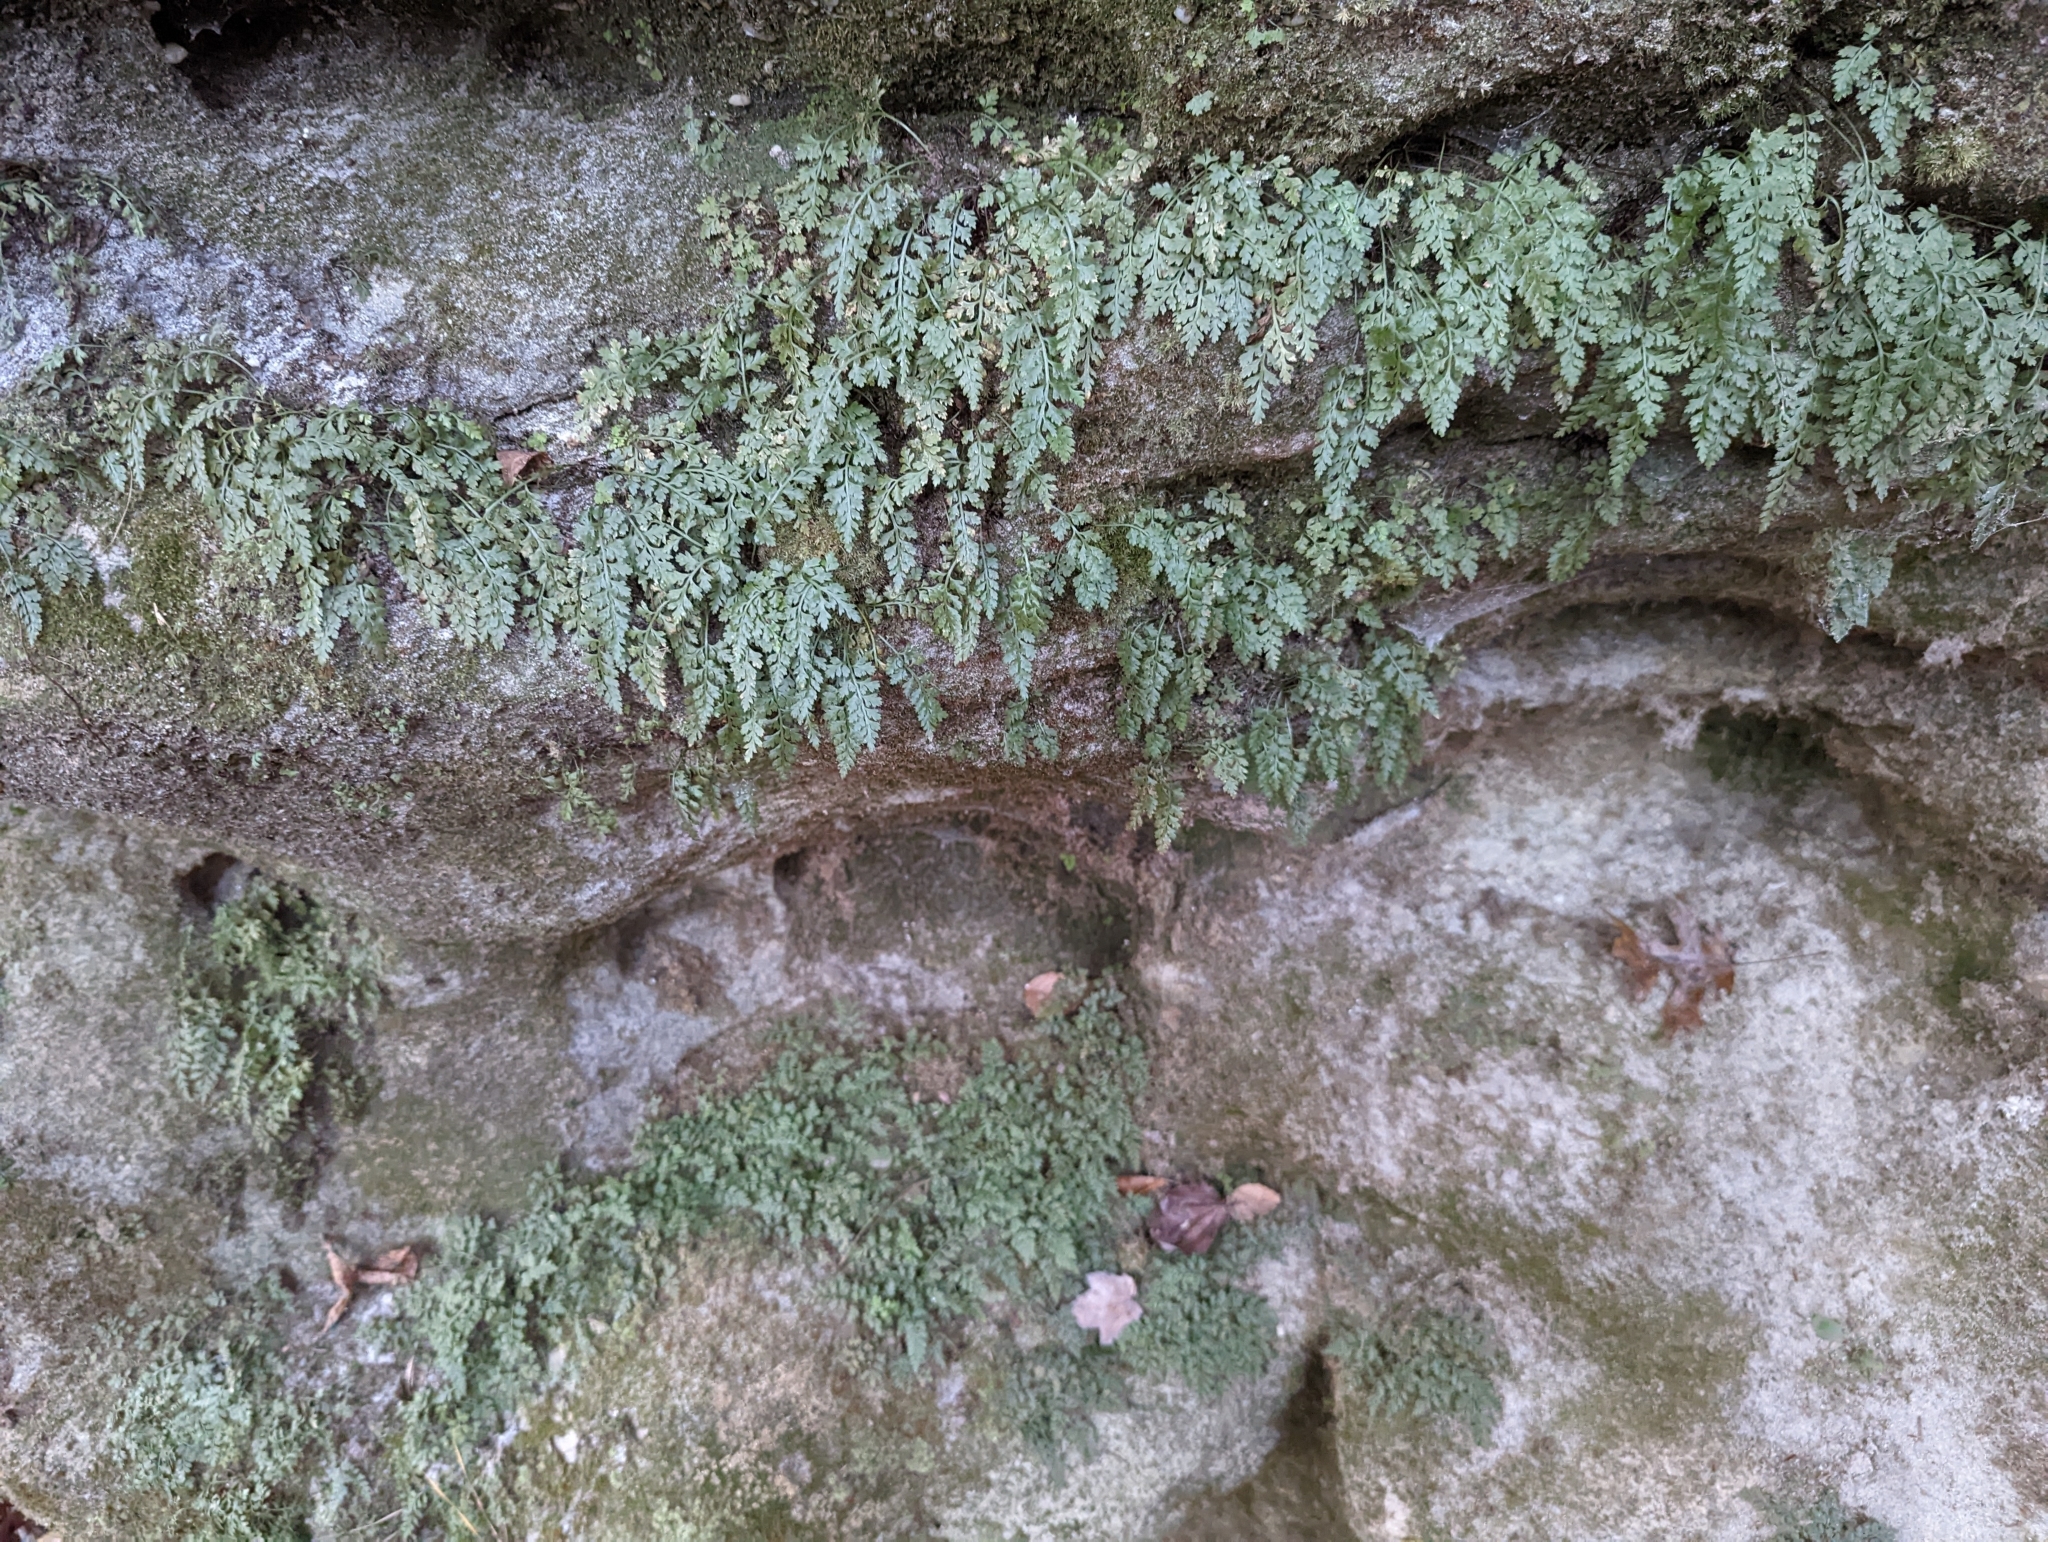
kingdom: Plantae
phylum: Tracheophyta
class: Polypodiopsida
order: Polypodiales
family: Aspleniaceae
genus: Asplenium
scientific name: Asplenium montanum
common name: Mountain spleenwort
